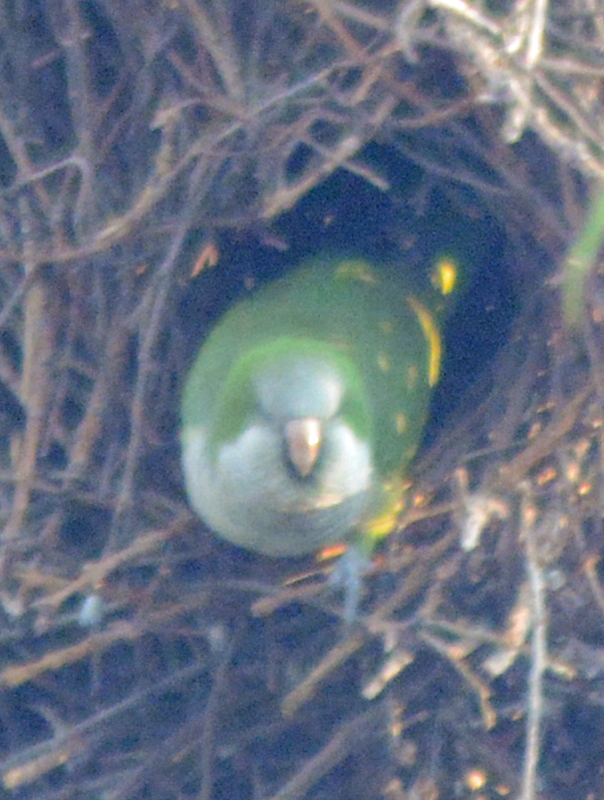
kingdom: Animalia
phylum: Chordata
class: Aves
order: Psittaciformes
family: Psittacidae
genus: Myiopsitta
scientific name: Myiopsitta monachus
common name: Monk parakeet
